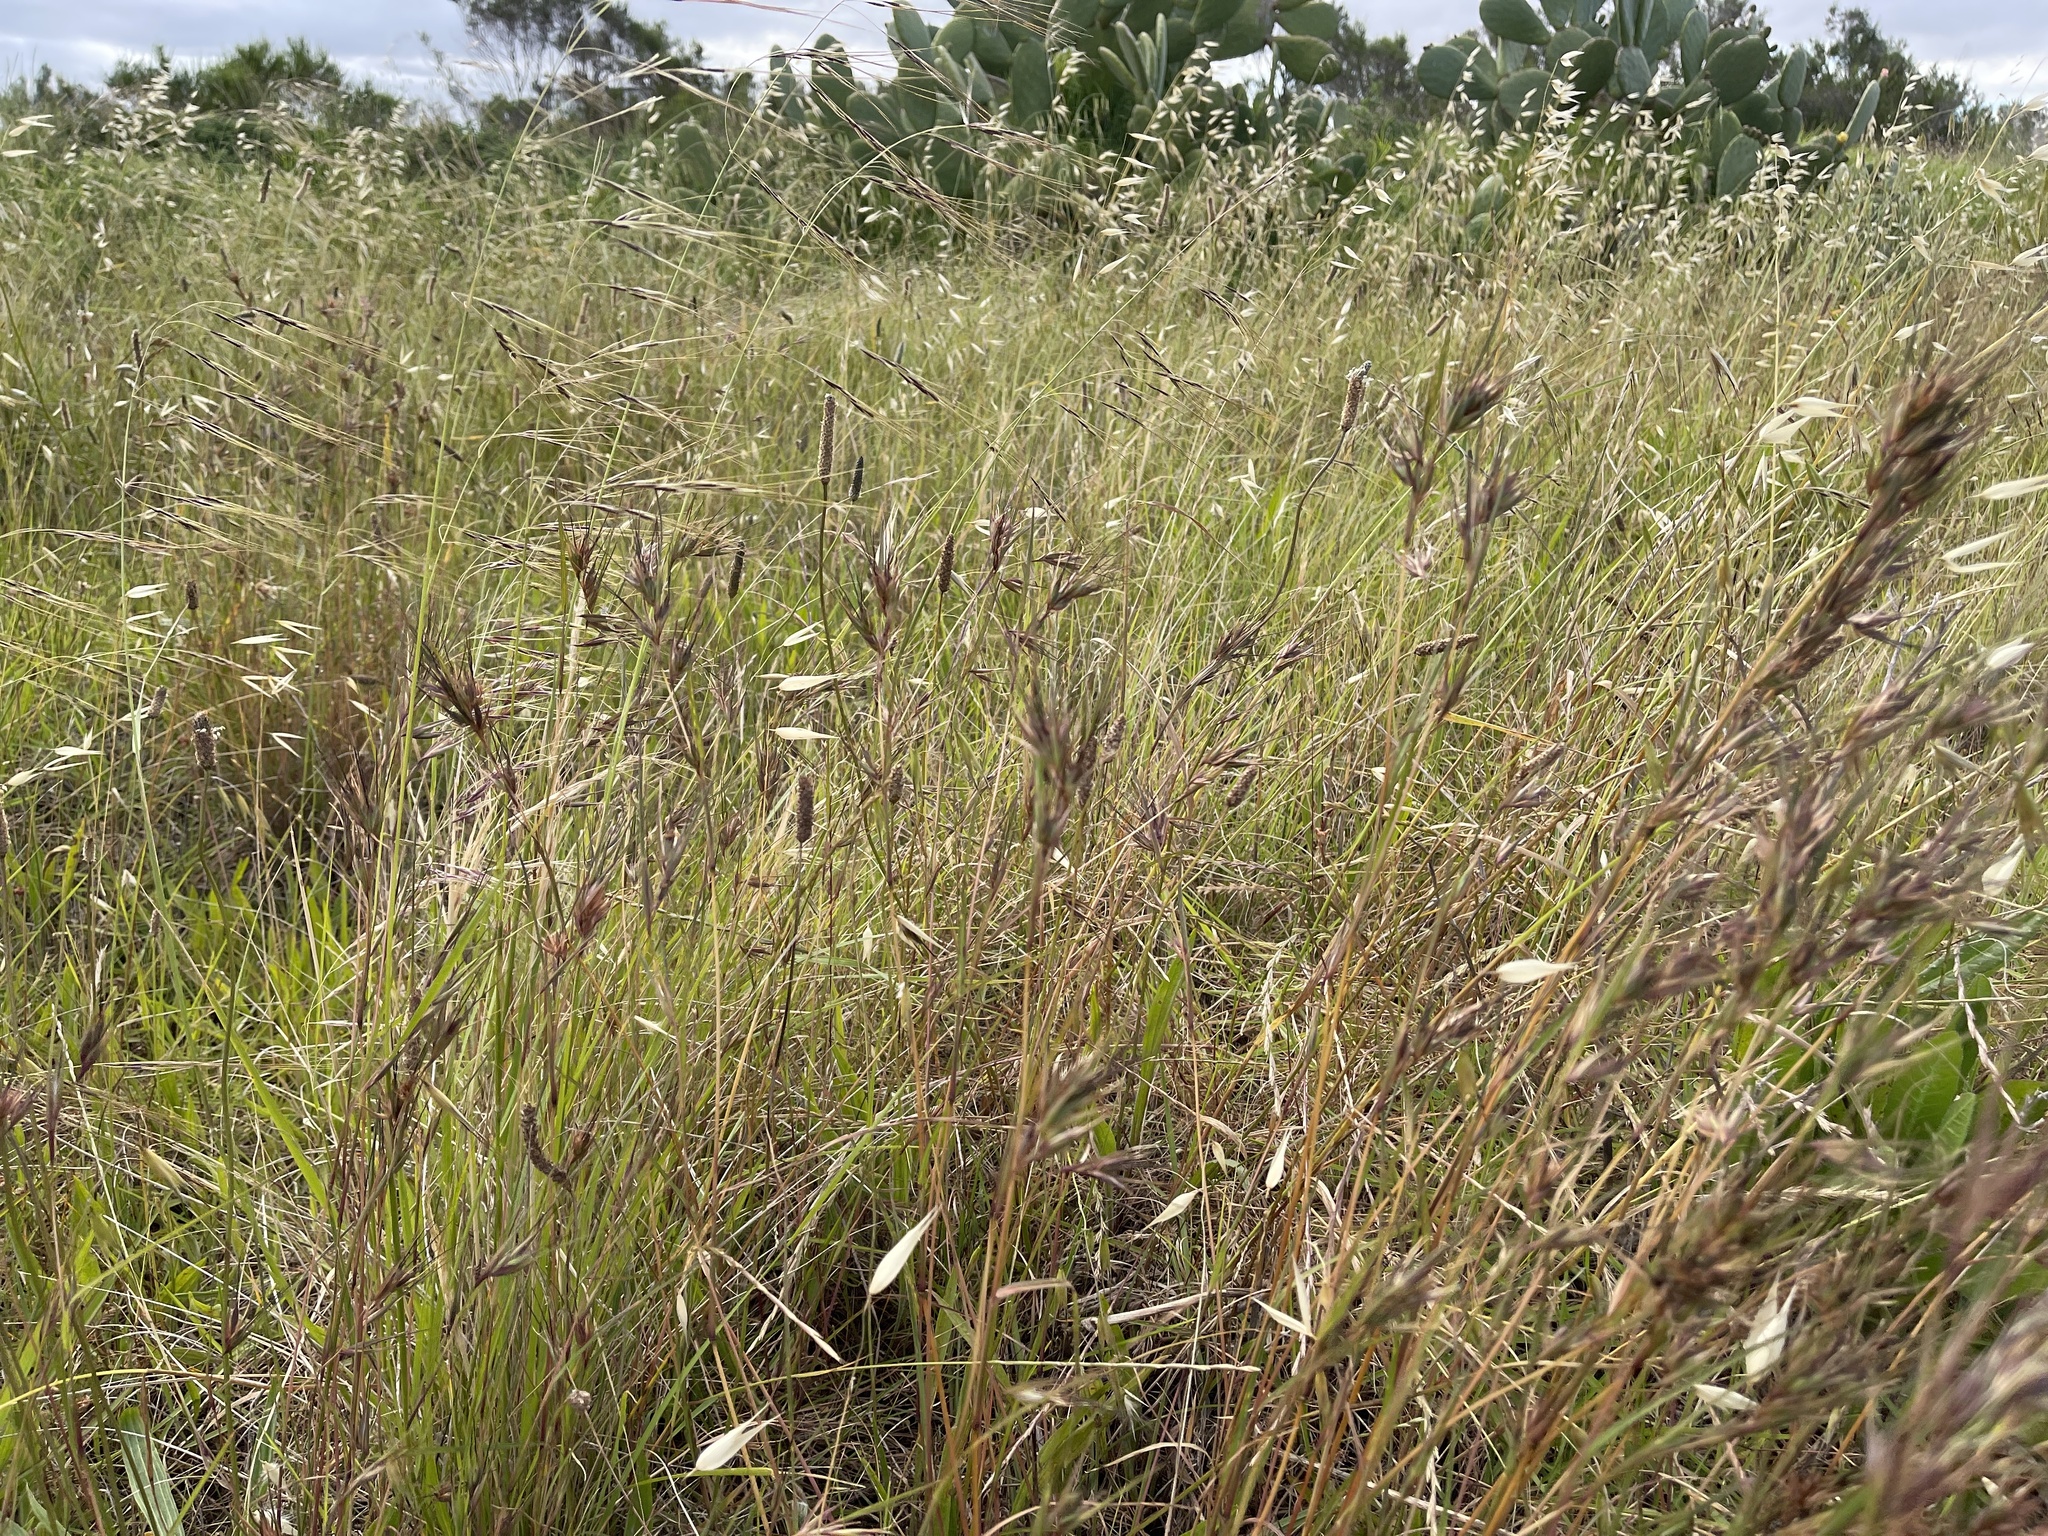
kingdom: Plantae
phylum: Tracheophyta
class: Liliopsida
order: Poales
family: Poaceae
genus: Themeda
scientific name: Themeda triandra
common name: Kangaroo grass
